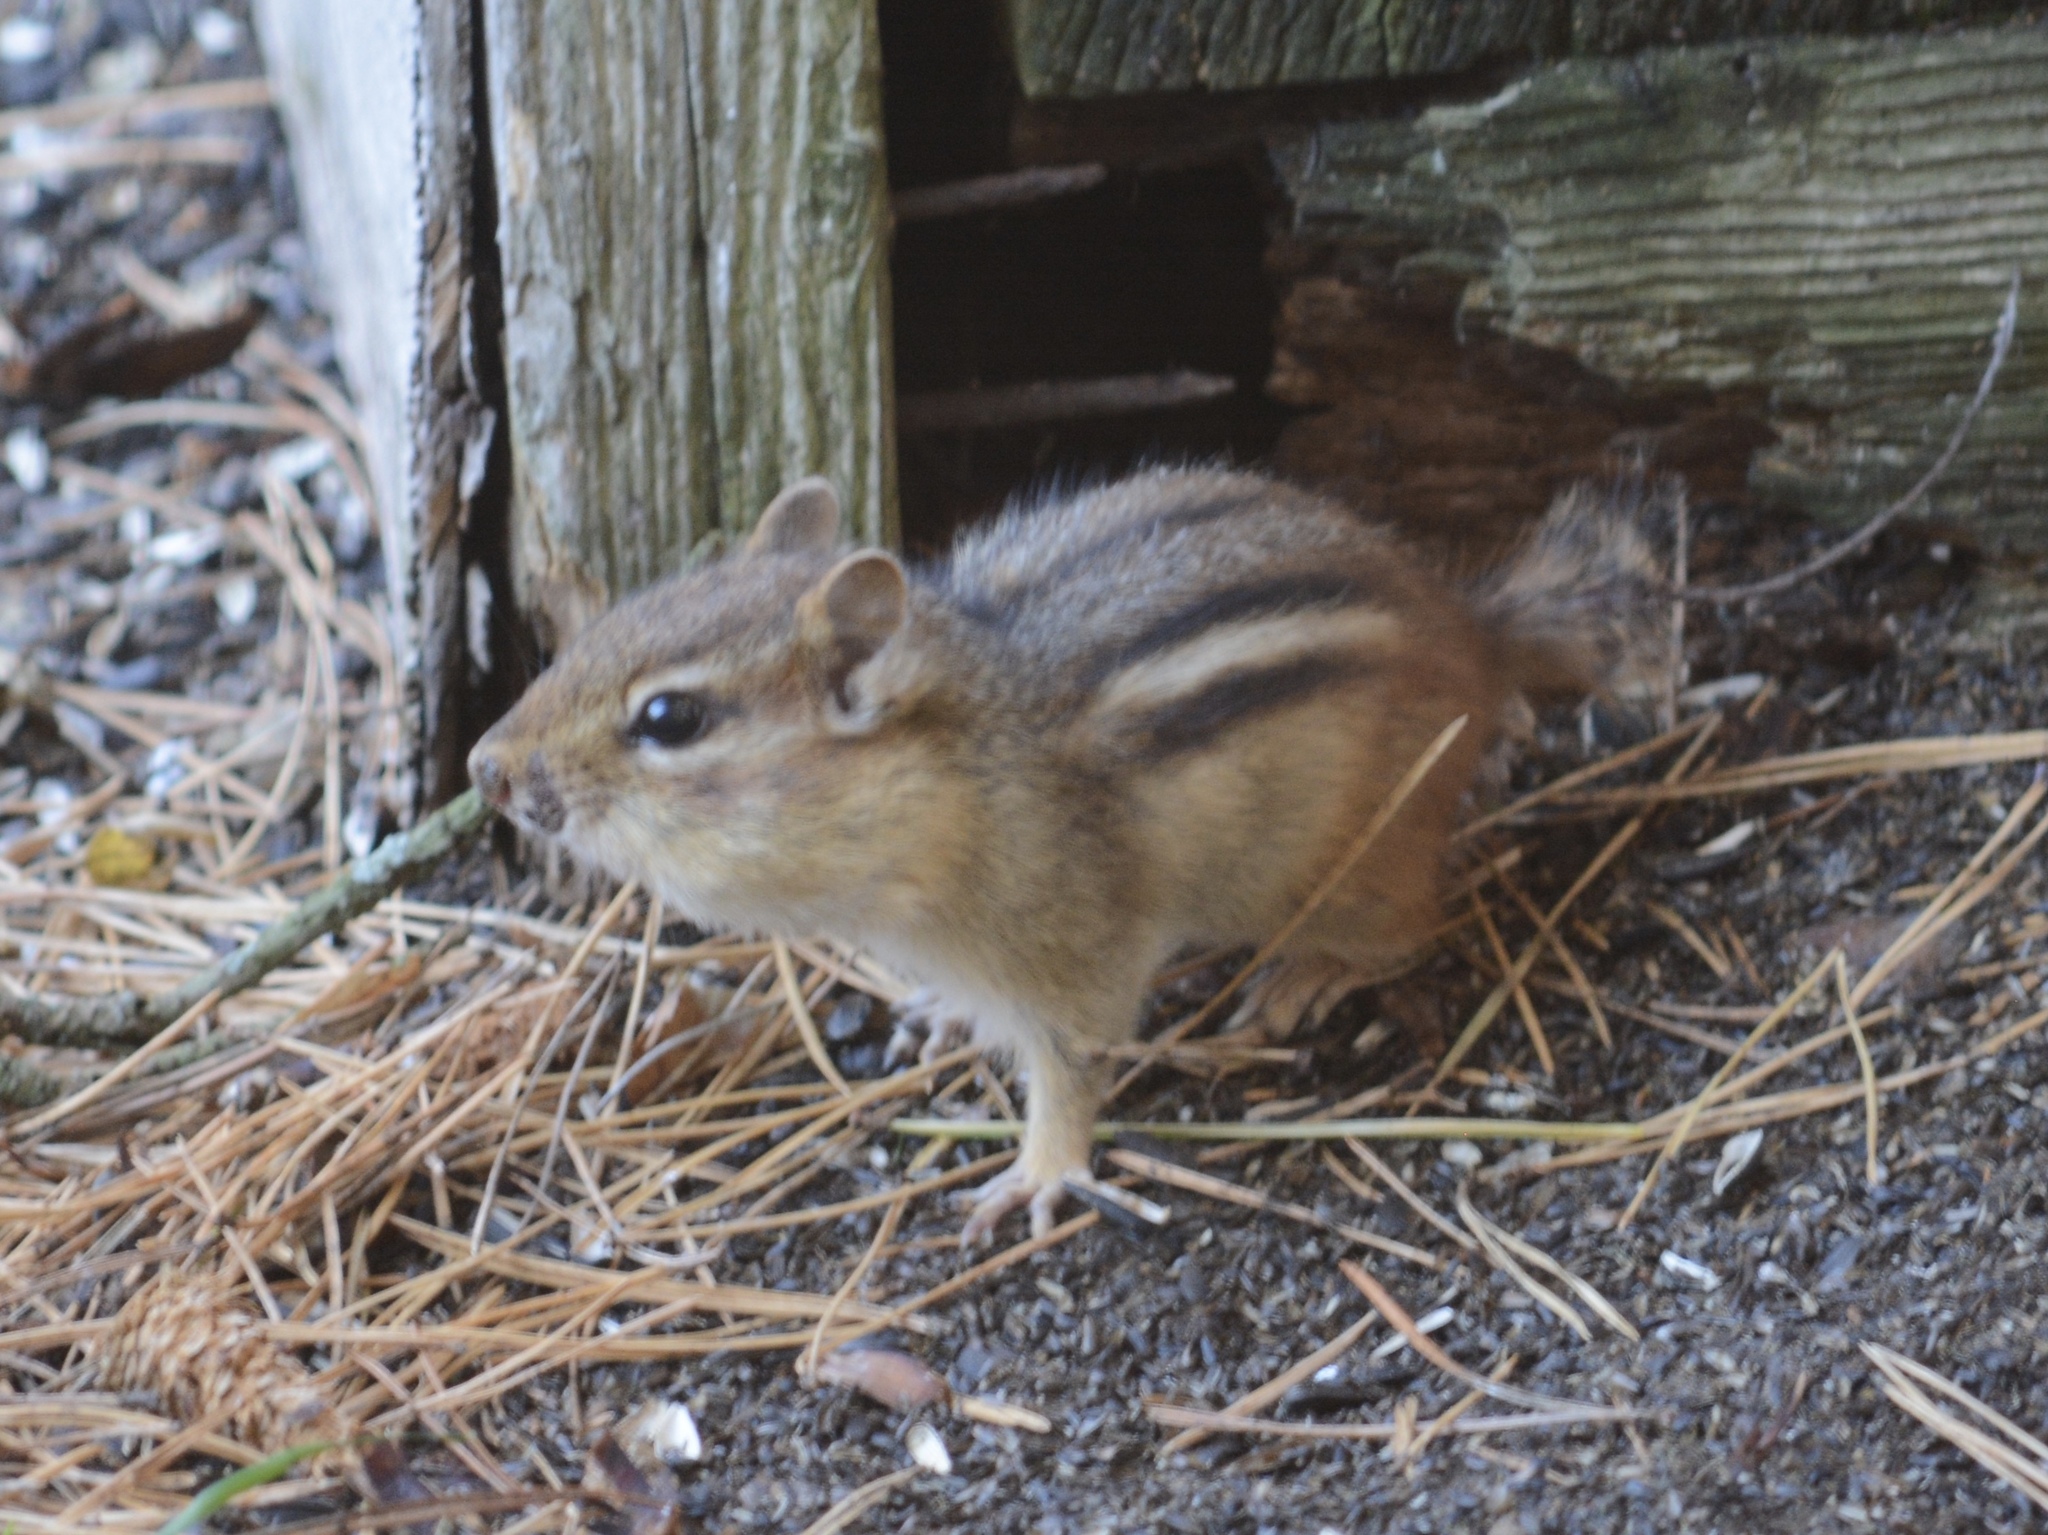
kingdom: Animalia
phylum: Chordata
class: Mammalia
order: Rodentia
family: Sciuridae
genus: Tamias
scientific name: Tamias striatus
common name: Eastern chipmunk
